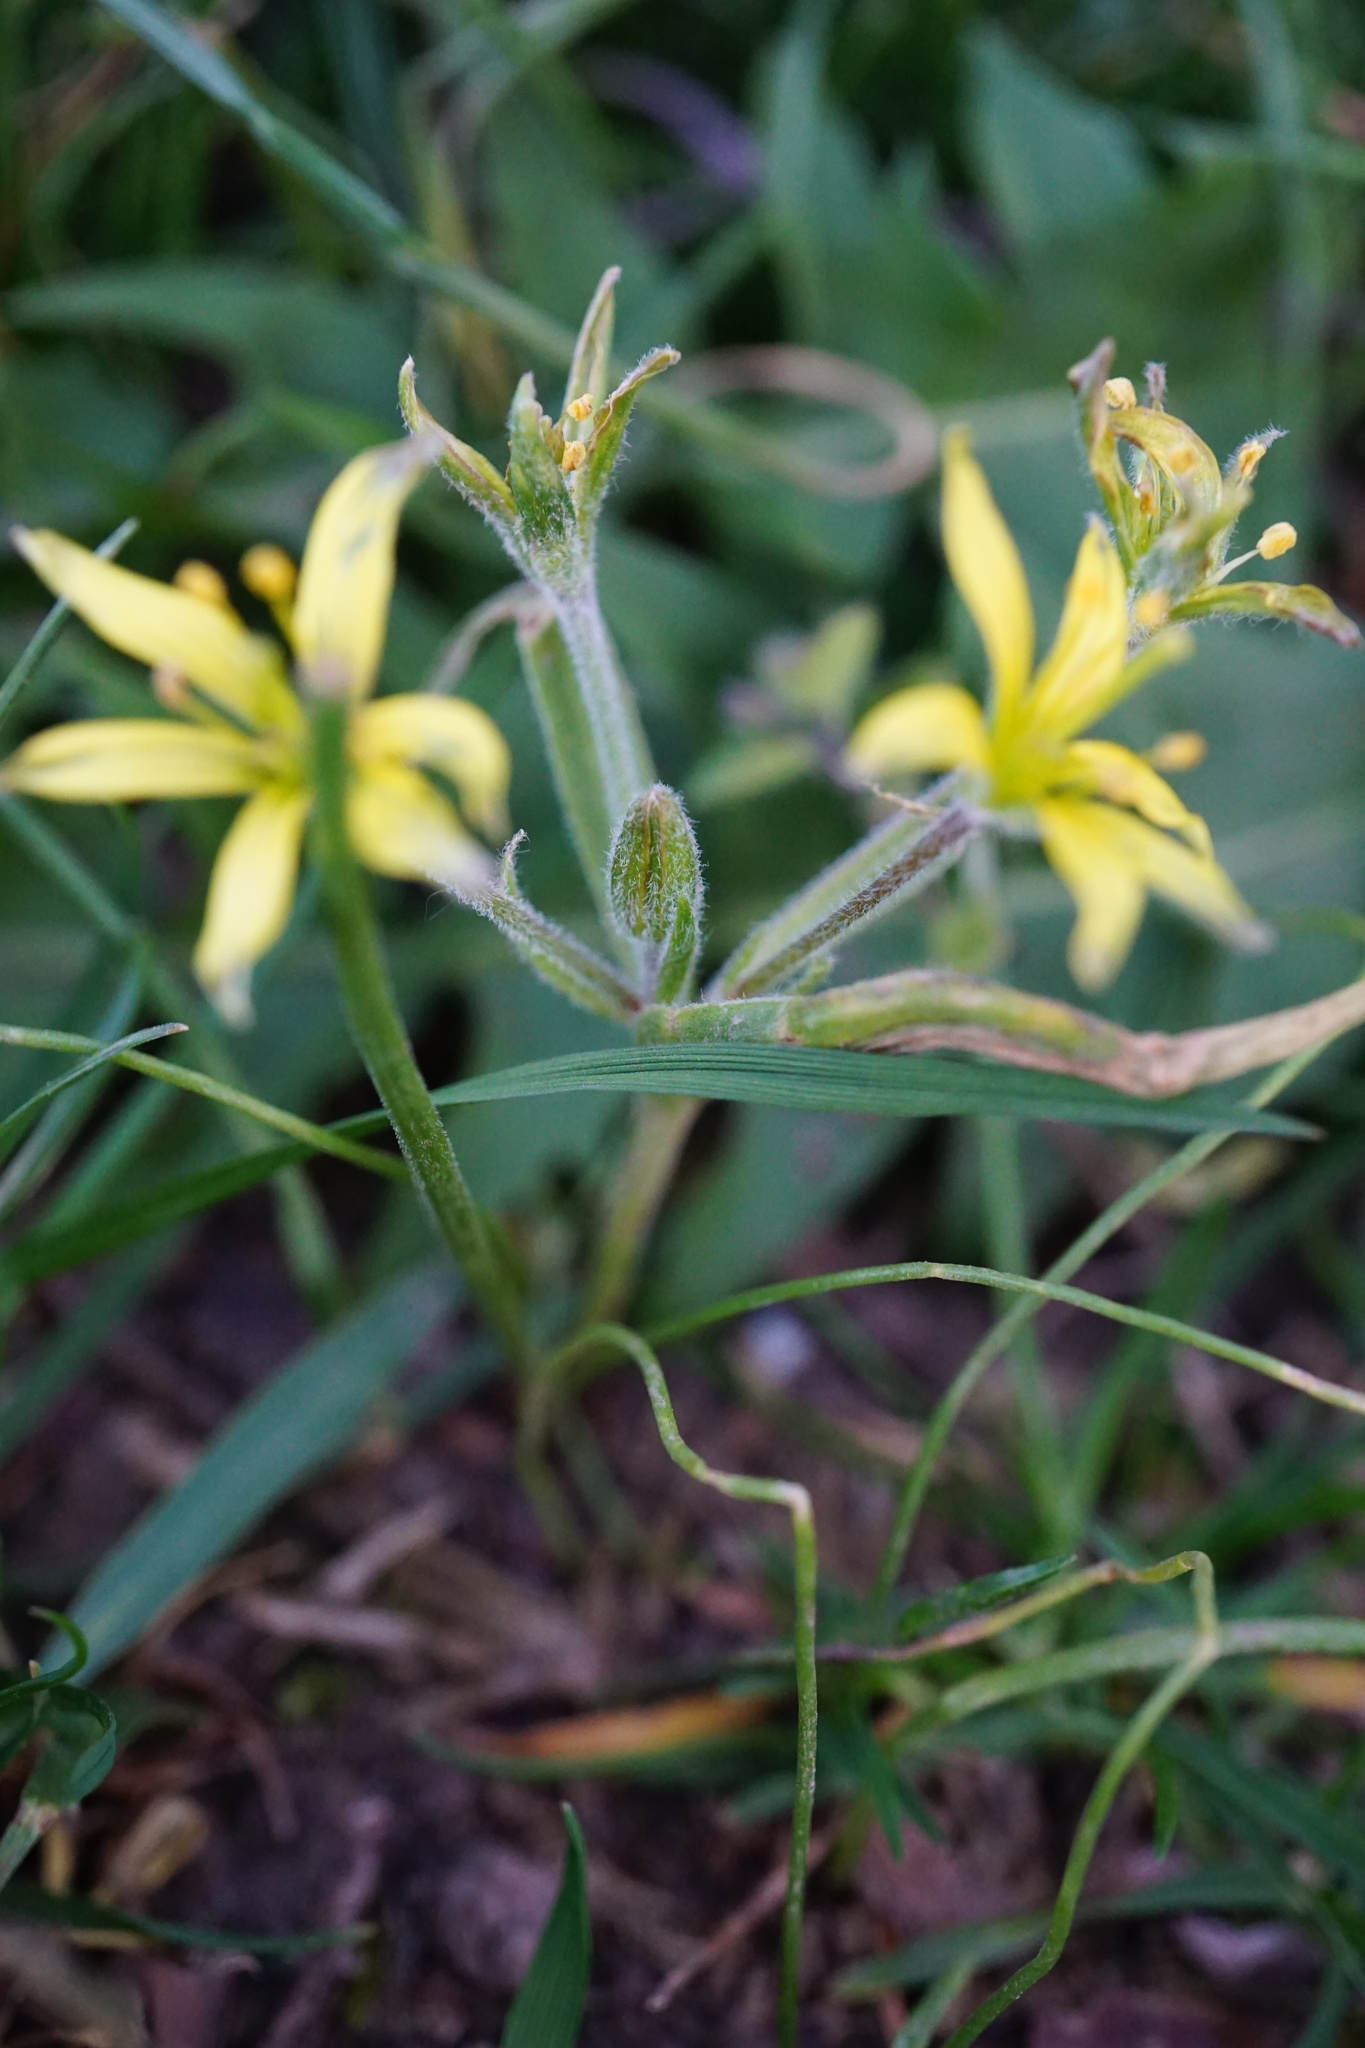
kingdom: Plantae
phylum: Tracheophyta
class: Liliopsida
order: Liliales
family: Liliaceae
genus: Gagea
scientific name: Gagea villosa
